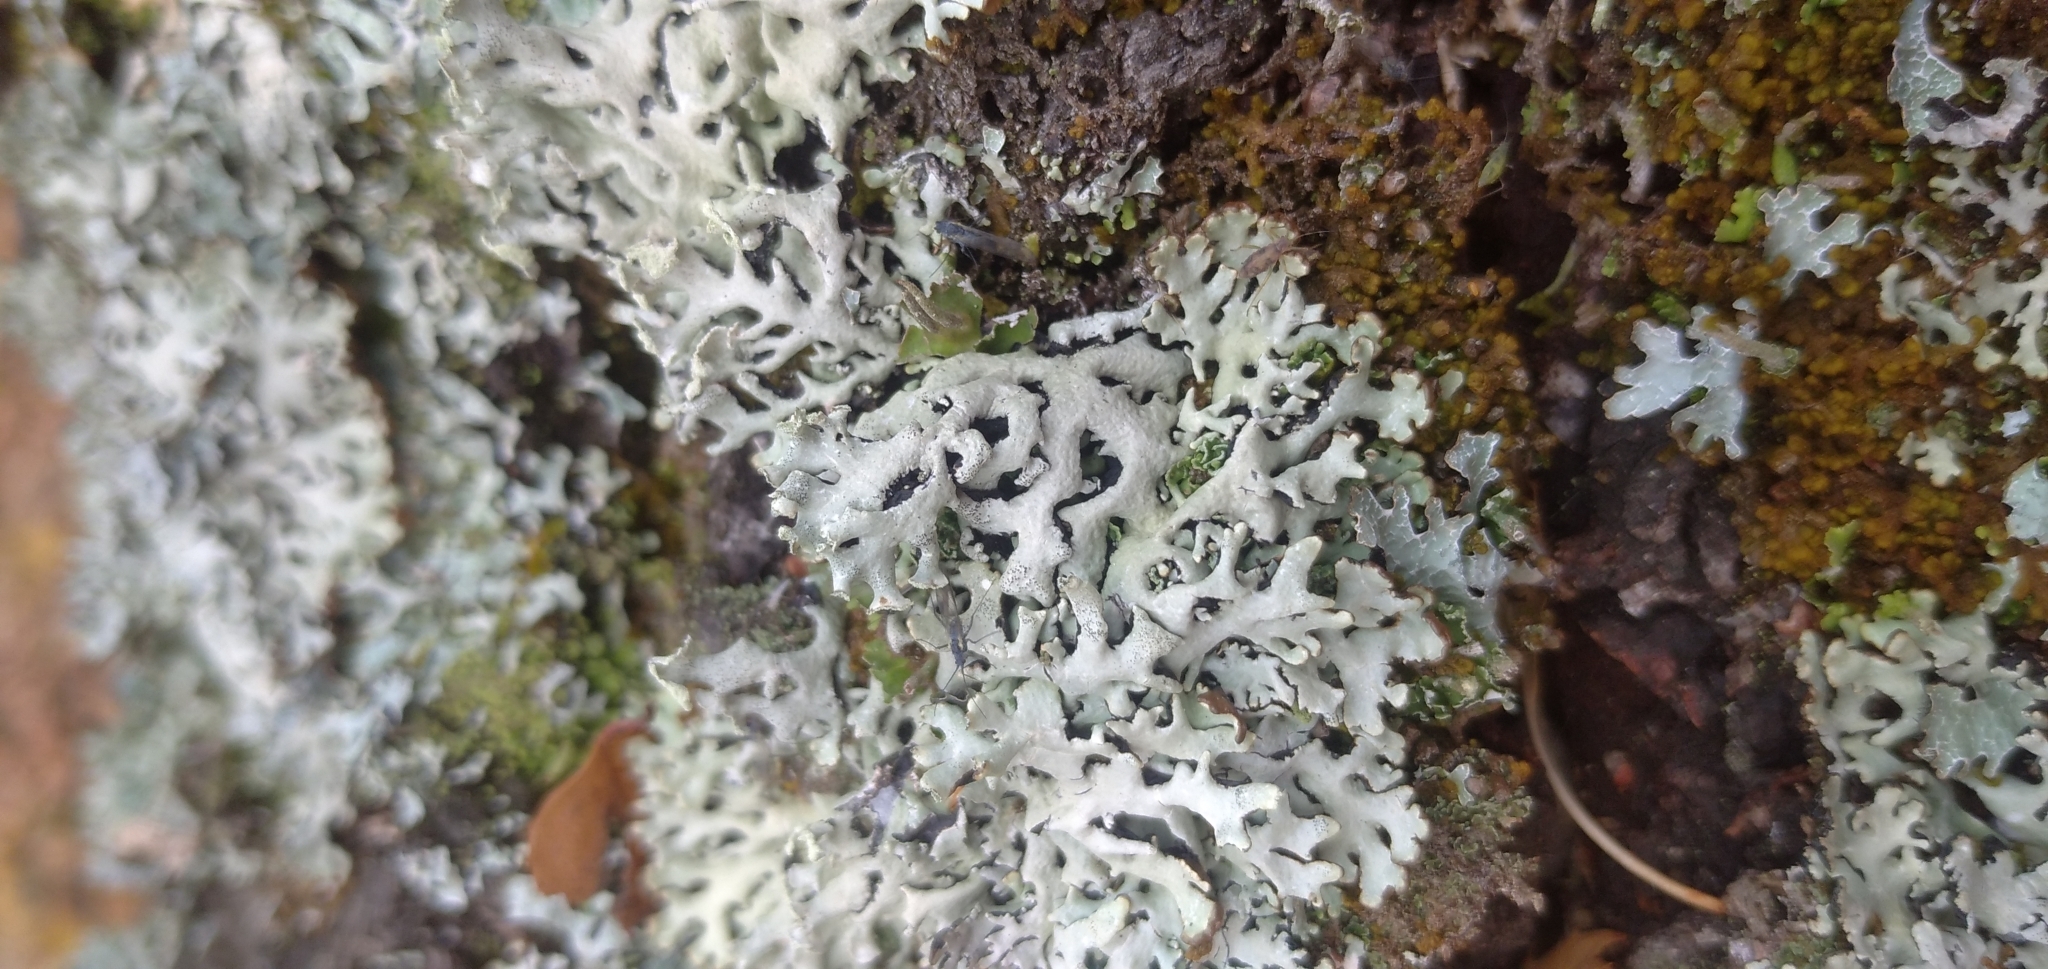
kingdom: Fungi
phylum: Ascomycota
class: Lecanoromycetes
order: Lecanorales
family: Parmeliaceae
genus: Hypogymnia
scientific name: Hypogymnia physodes
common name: Dark crottle
